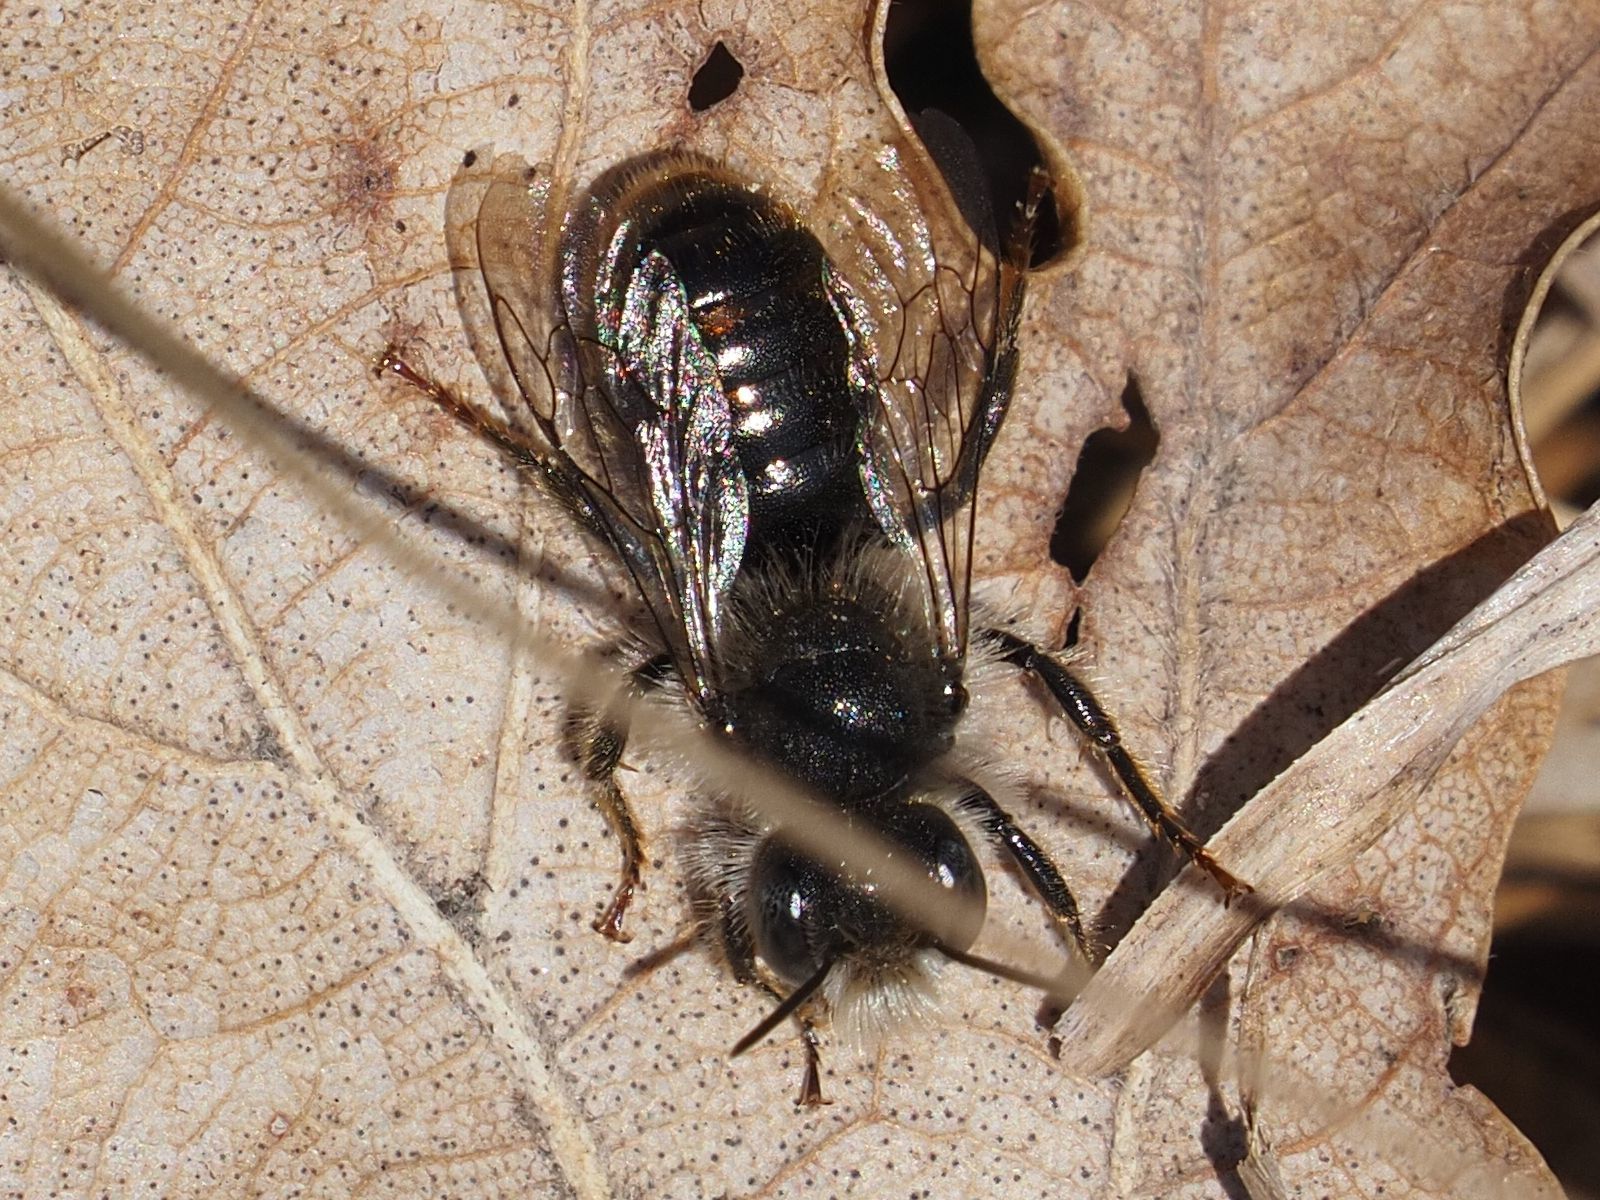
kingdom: Animalia
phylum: Arthropoda
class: Insecta
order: Hymenoptera
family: Megachilidae
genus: Osmia
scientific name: Osmia bicolor
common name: Red-tailed mason bee
